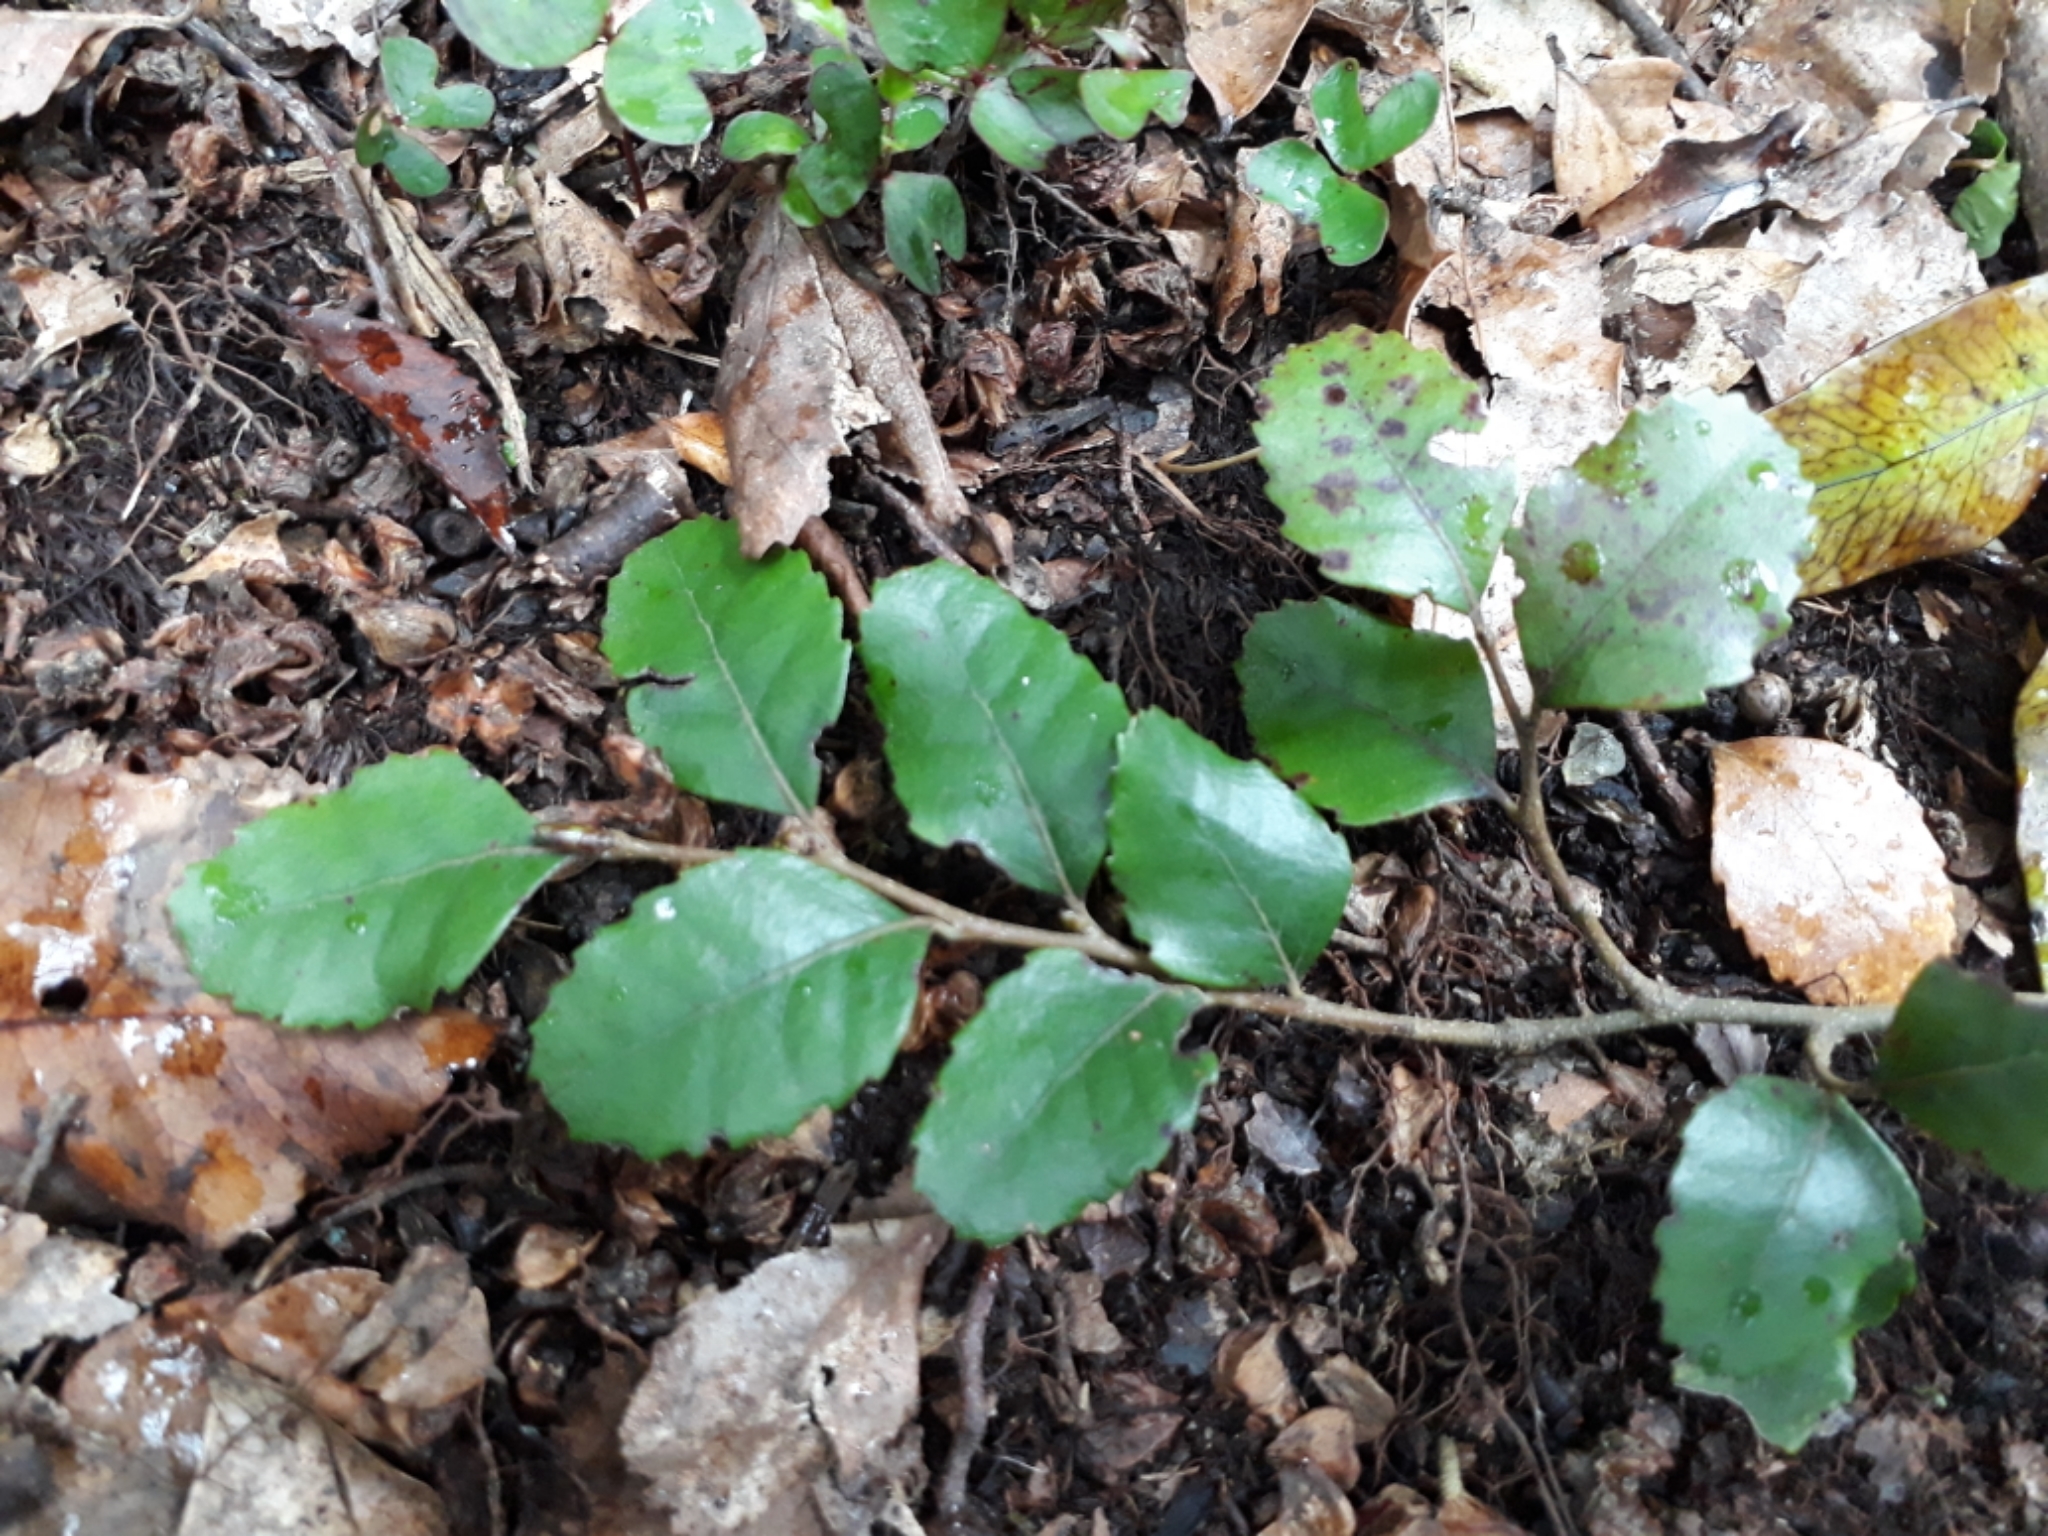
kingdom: Plantae
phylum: Tracheophyta
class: Magnoliopsida
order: Fagales
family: Nothofagaceae
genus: Nothofagus
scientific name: Nothofagus truncata
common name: Hard beech
